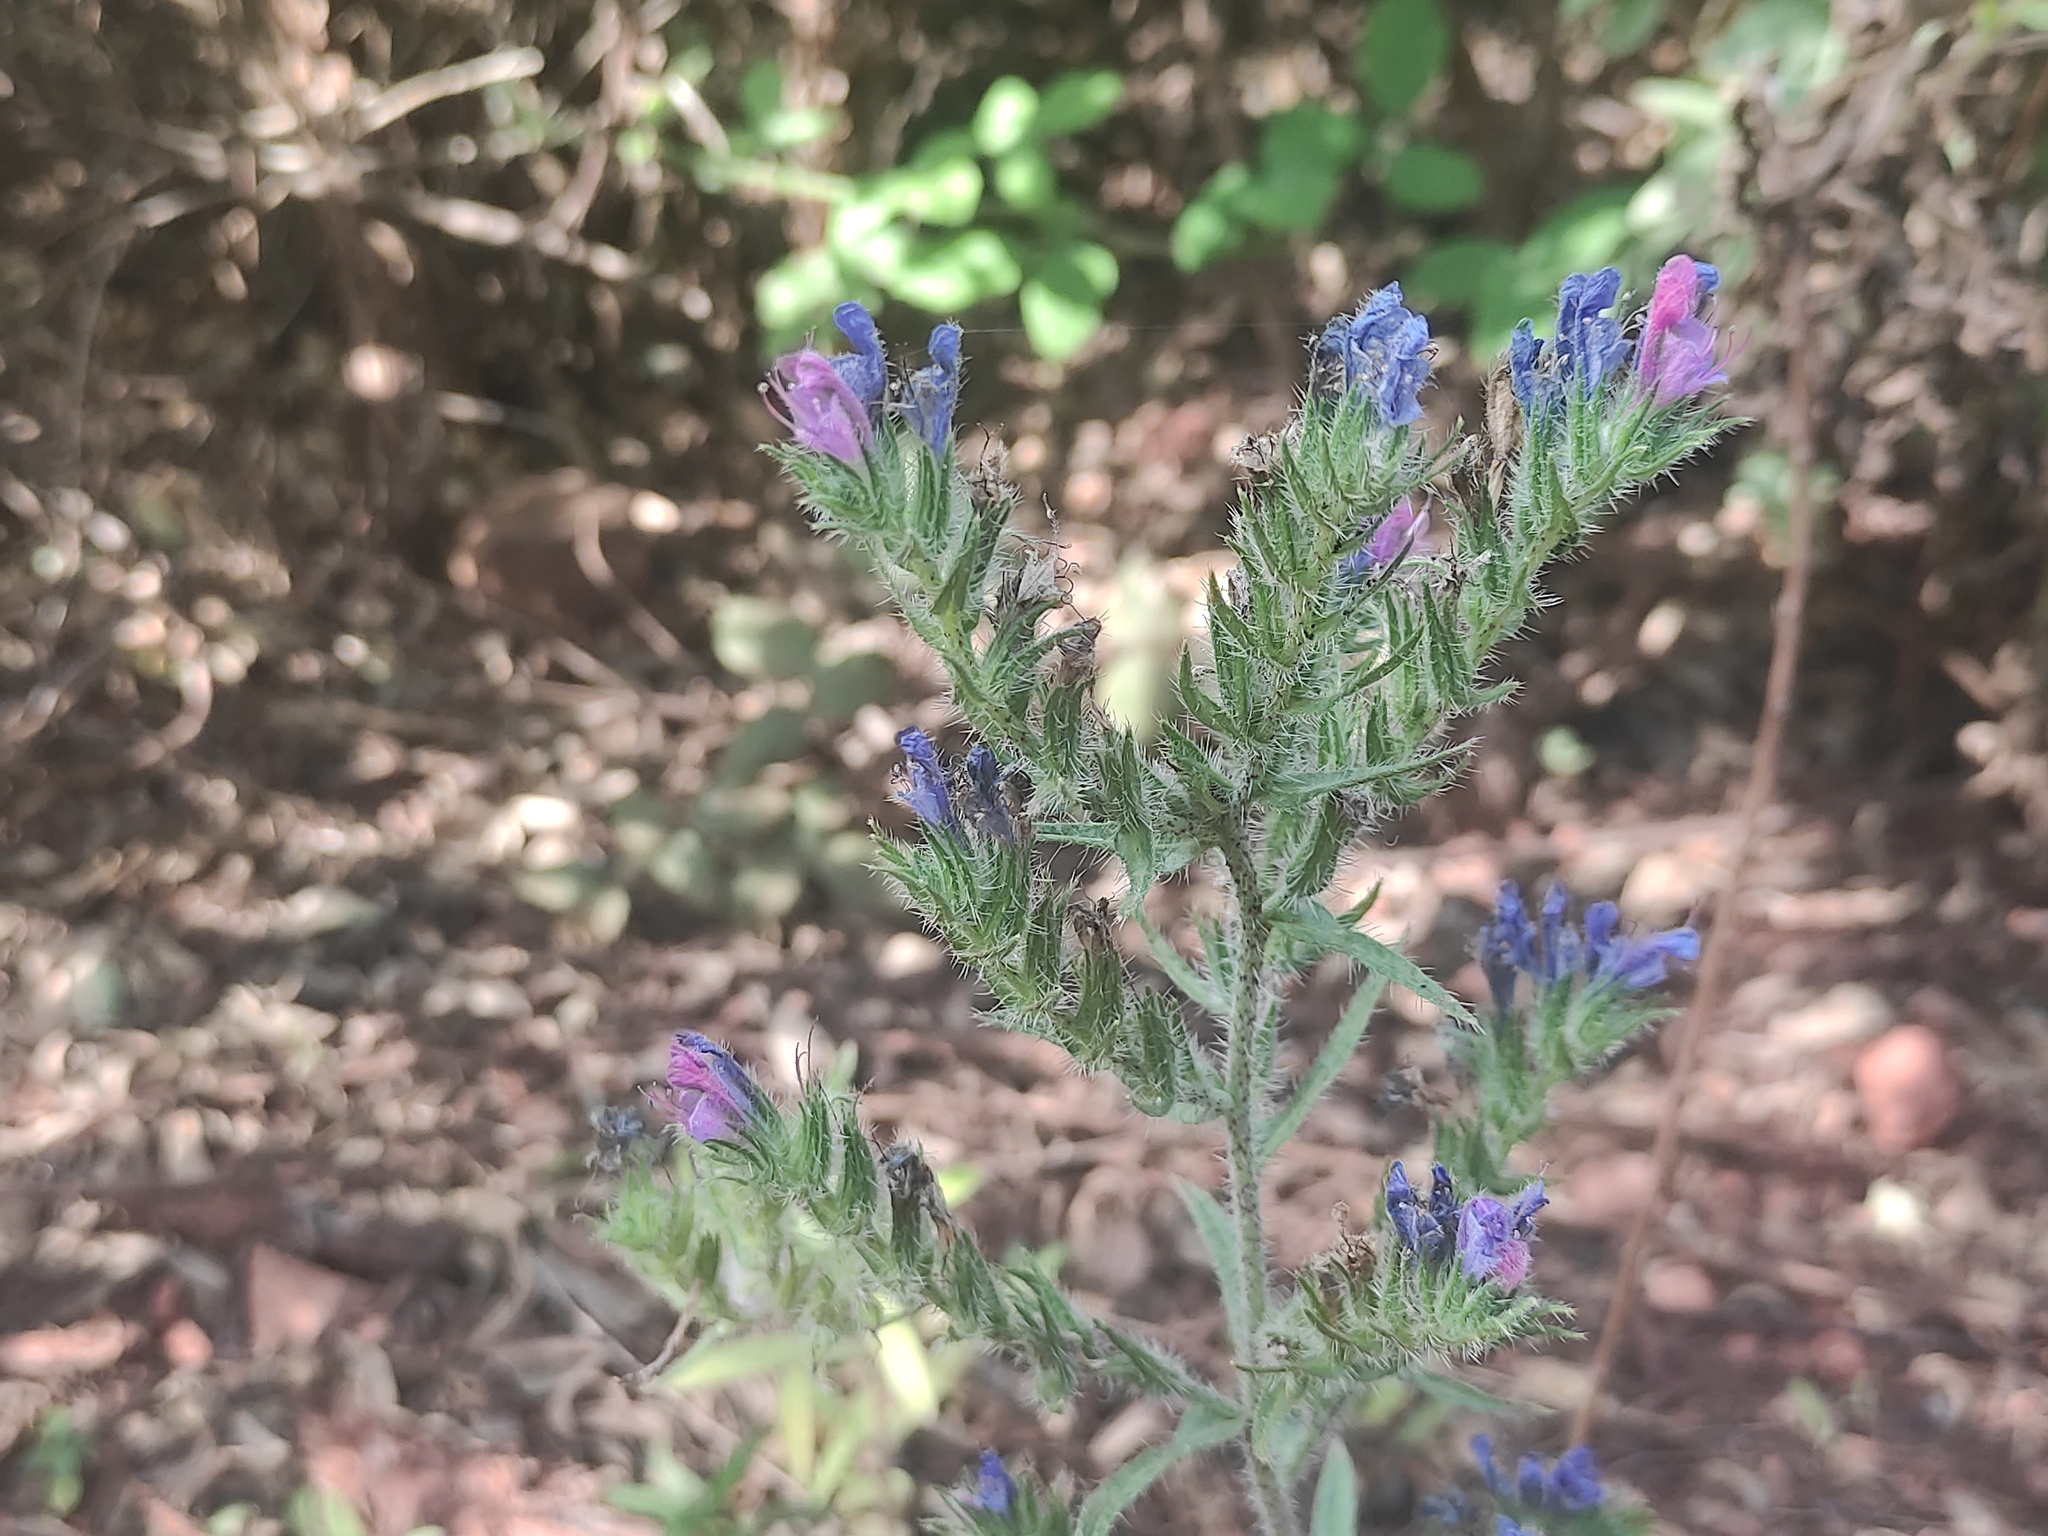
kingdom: Plantae
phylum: Tracheophyta
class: Magnoliopsida
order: Boraginales
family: Boraginaceae
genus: Echium
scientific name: Echium vulgare
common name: Common viper's bugloss
